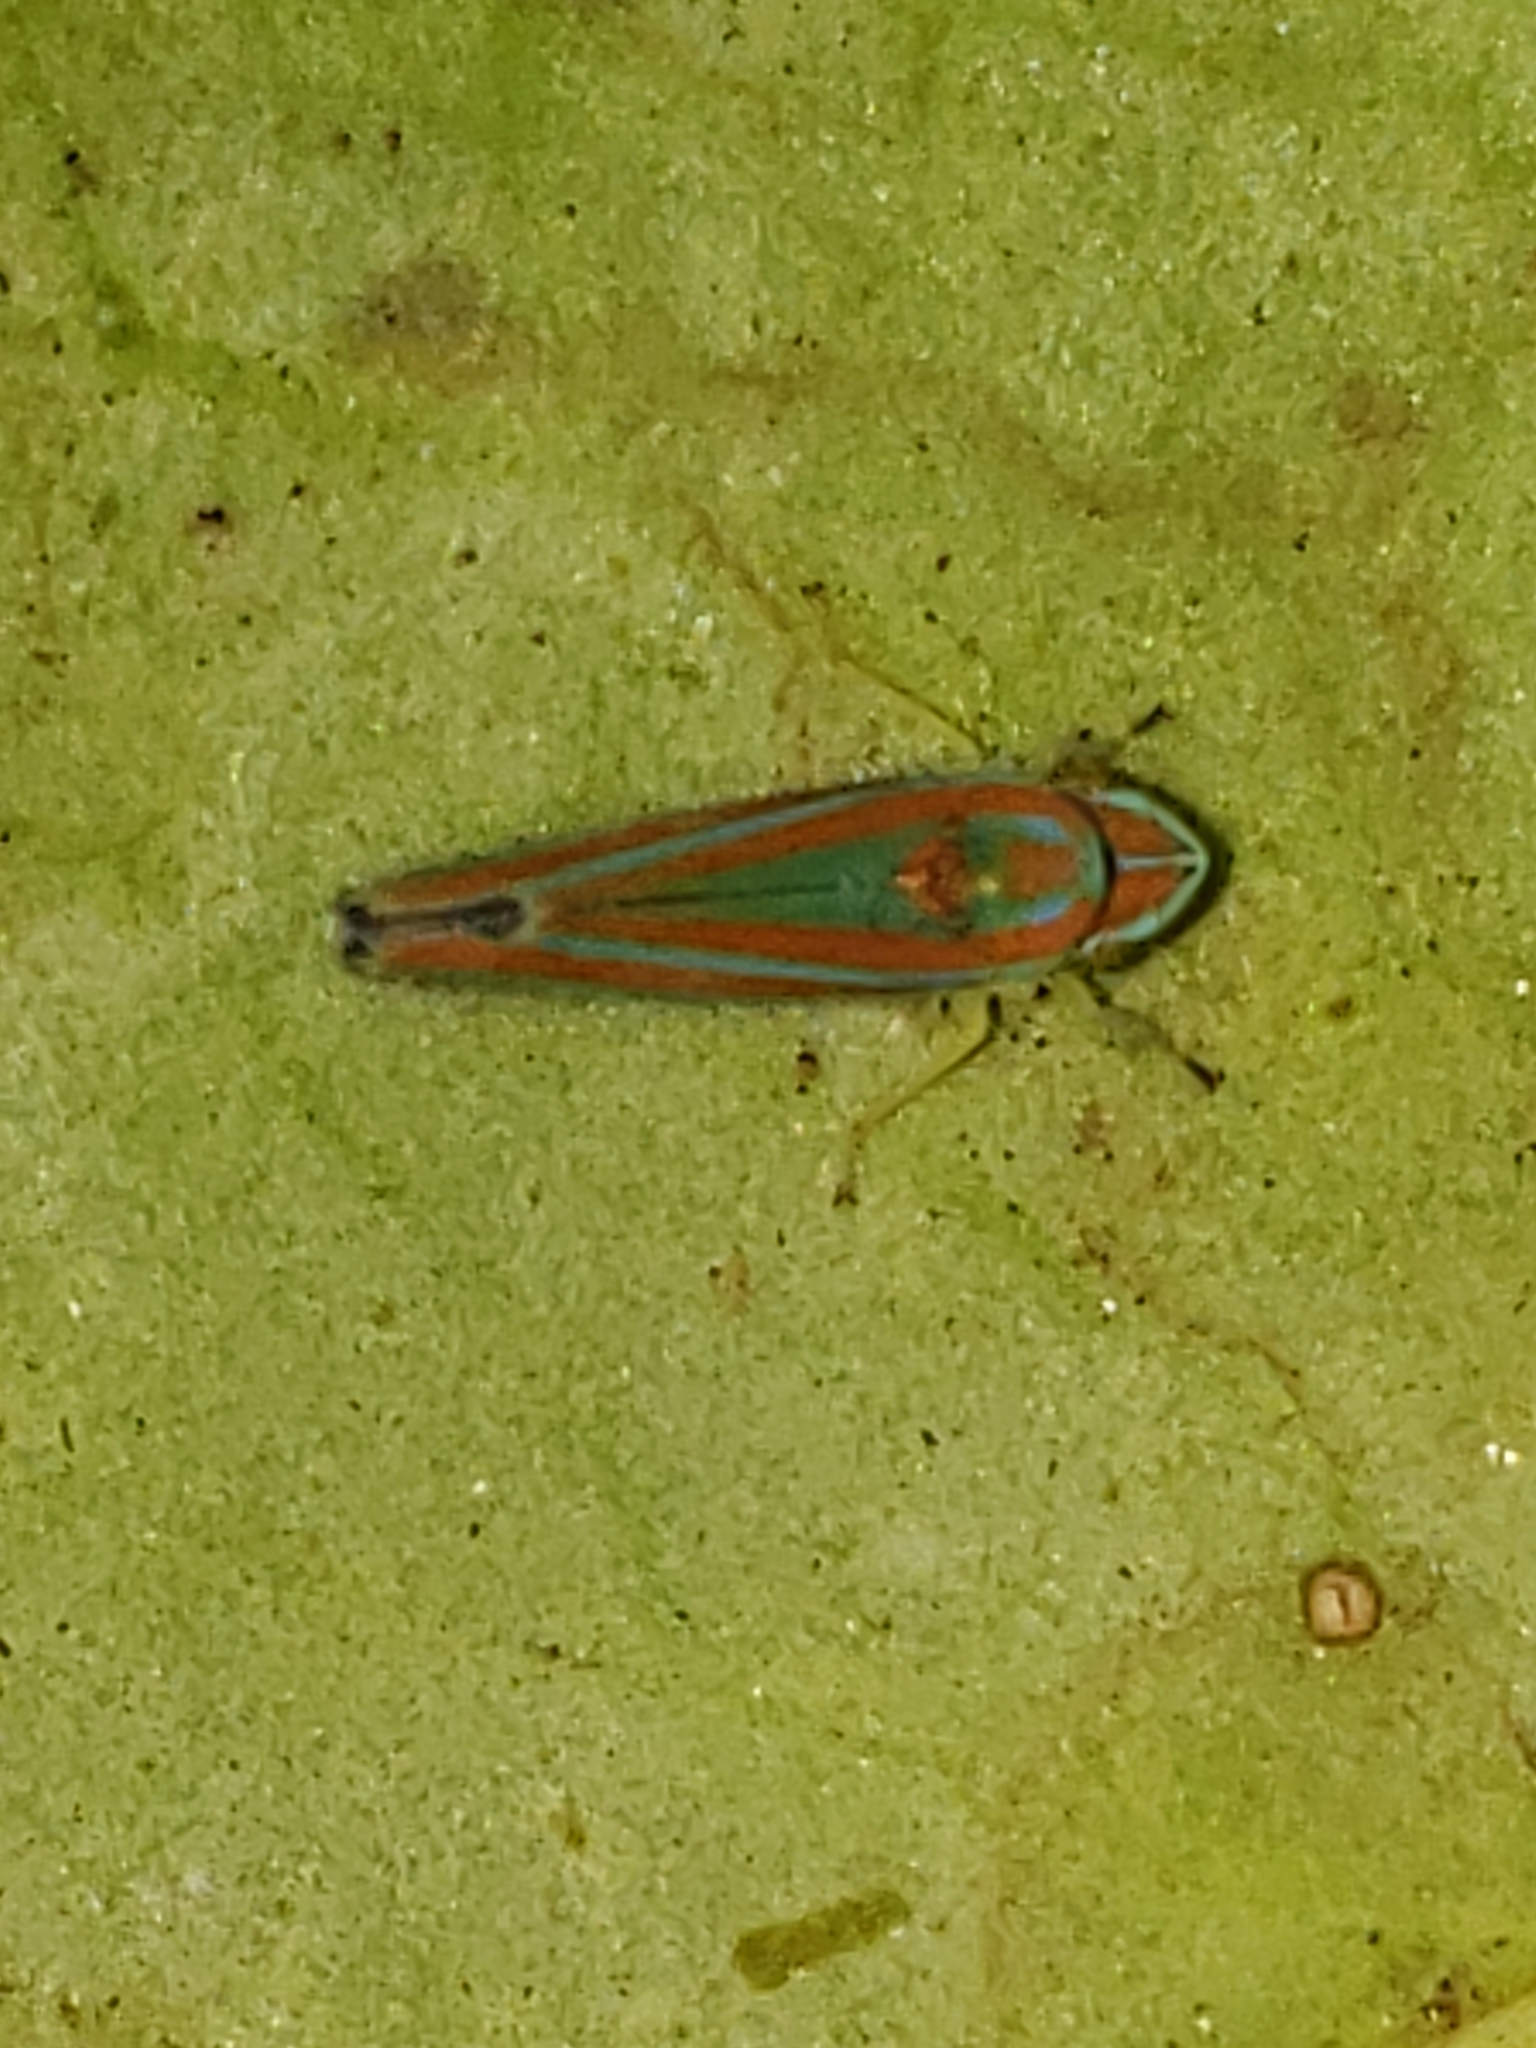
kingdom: Animalia
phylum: Arthropoda
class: Insecta
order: Hemiptera
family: Cicadellidae
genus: Graphocephala
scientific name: Graphocephala versuta
